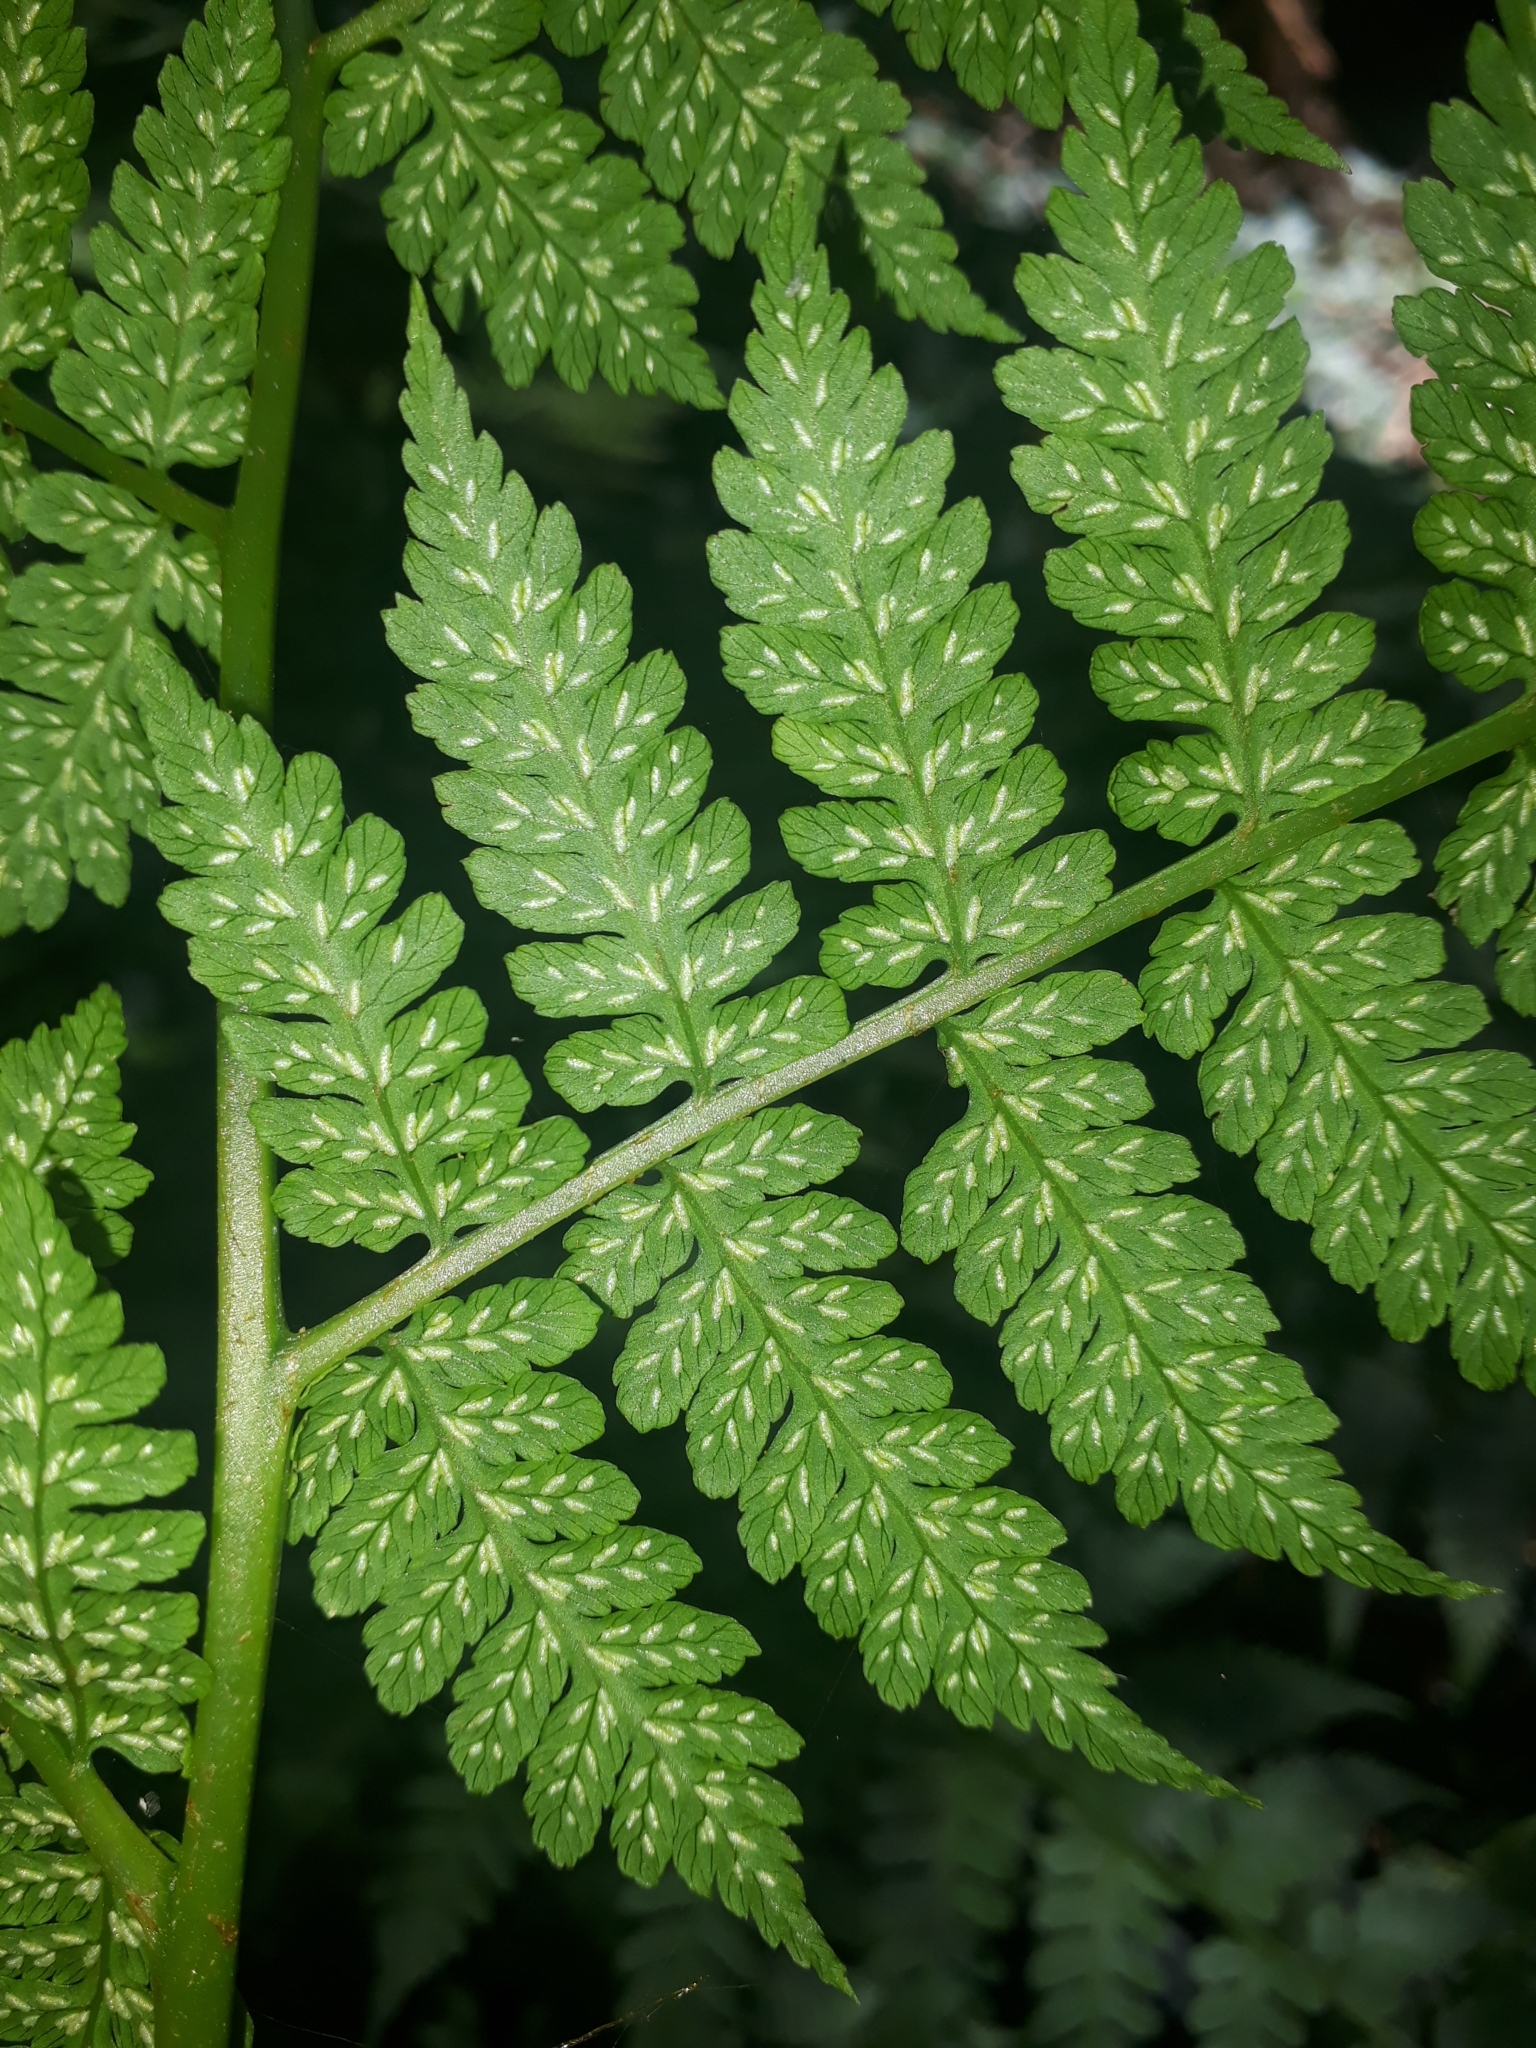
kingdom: Plantae
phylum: Tracheophyta
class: Polypodiopsida
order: Polypodiales
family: Athyriaceae
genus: Diplazium
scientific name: Diplazium australe
